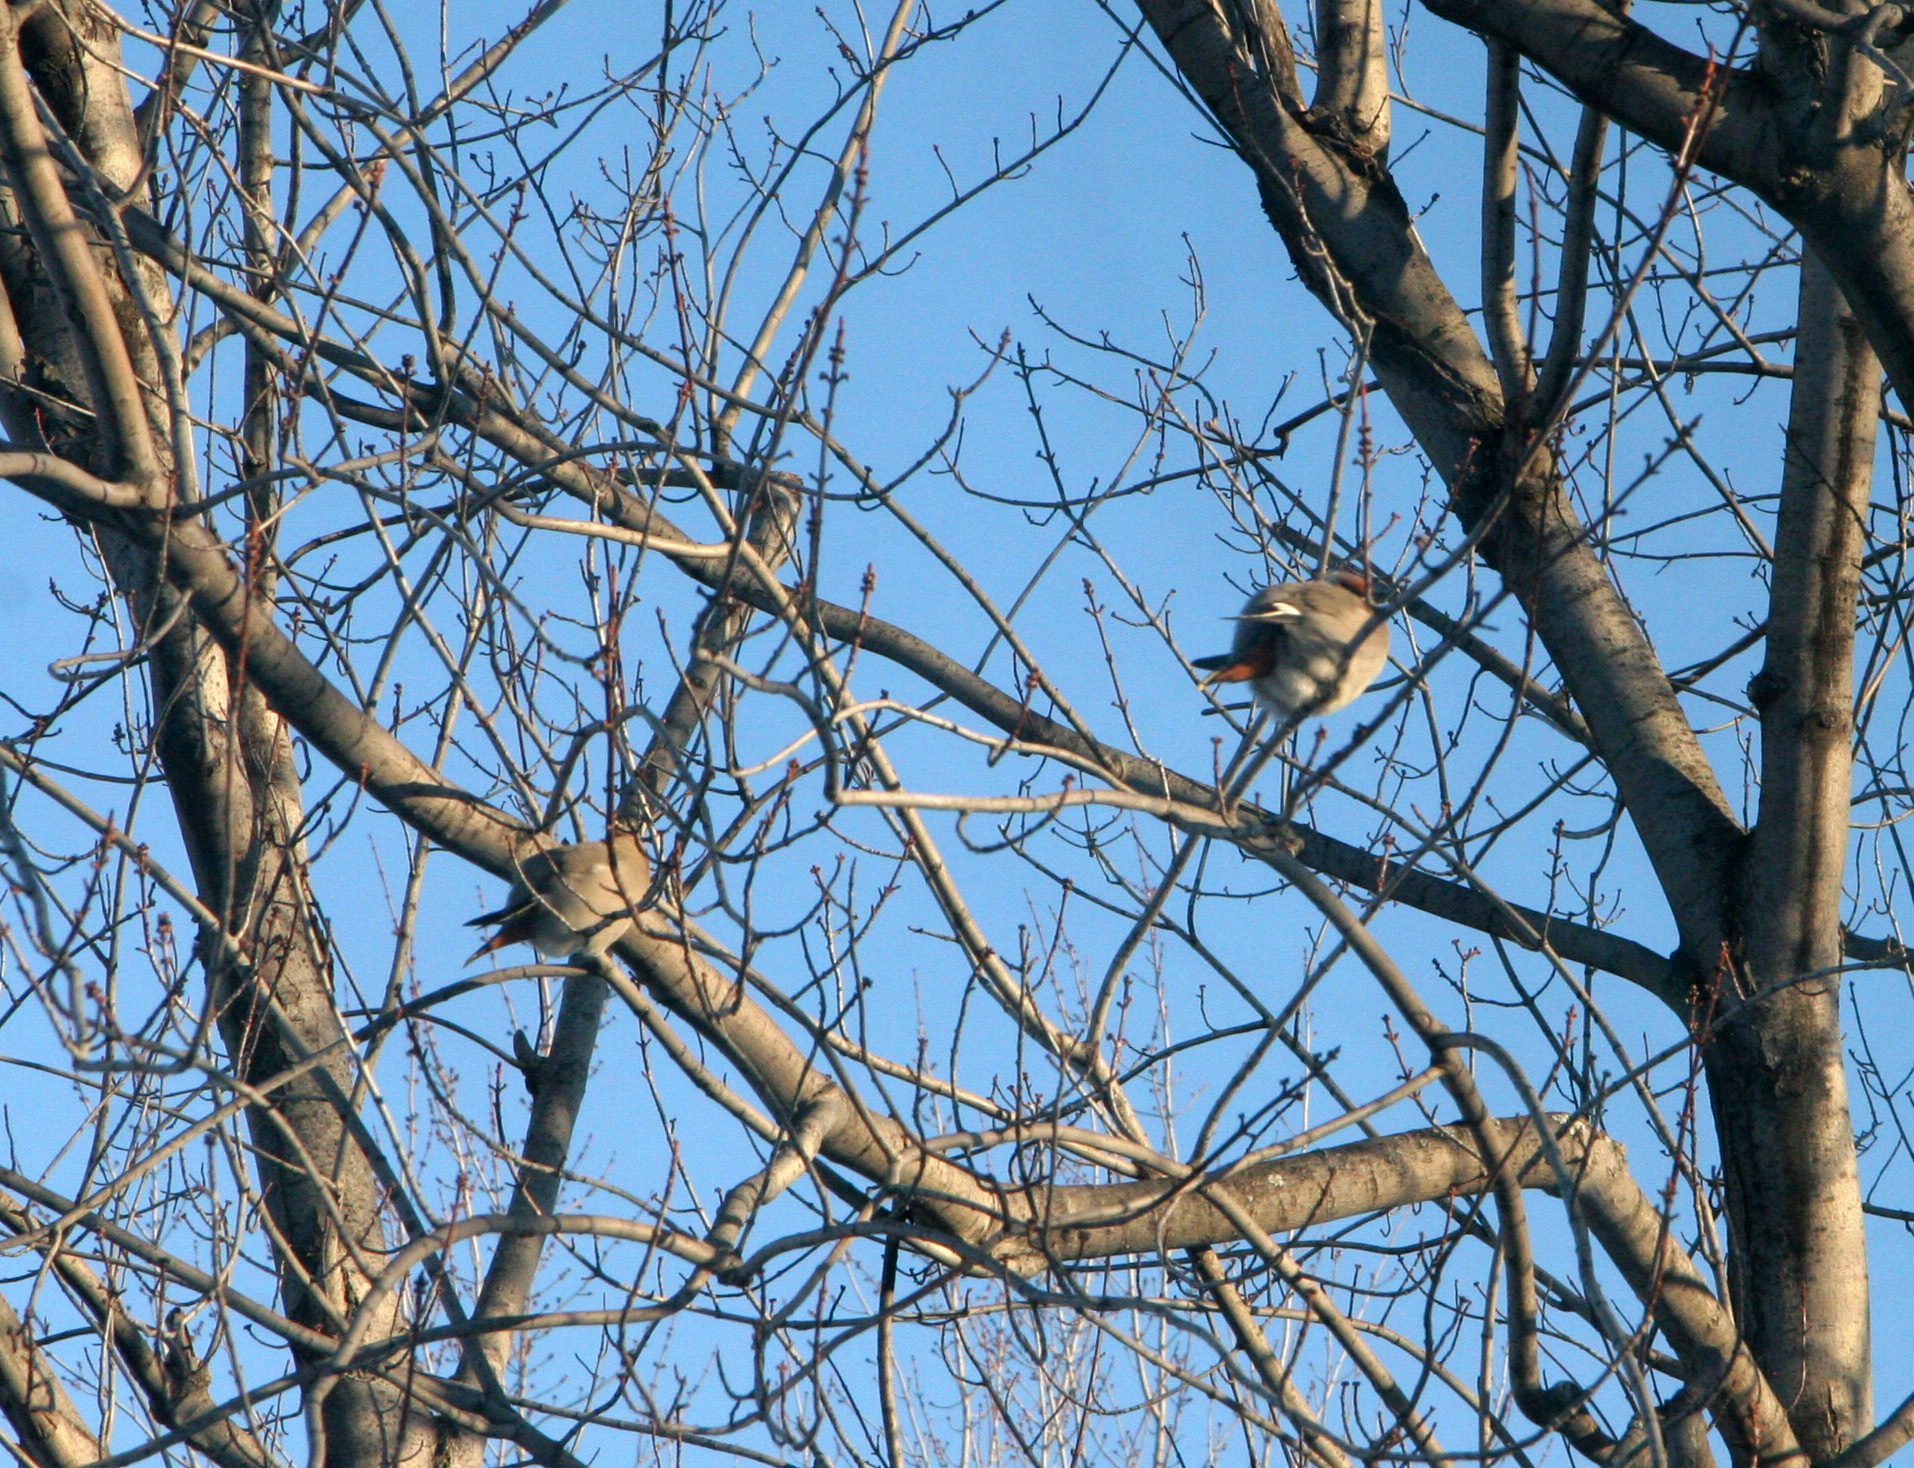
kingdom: Animalia
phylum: Chordata
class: Aves
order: Passeriformes
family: Bombycillidae
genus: Bombycilla
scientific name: Bombycilla garrulus
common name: Bohemian waxwing
